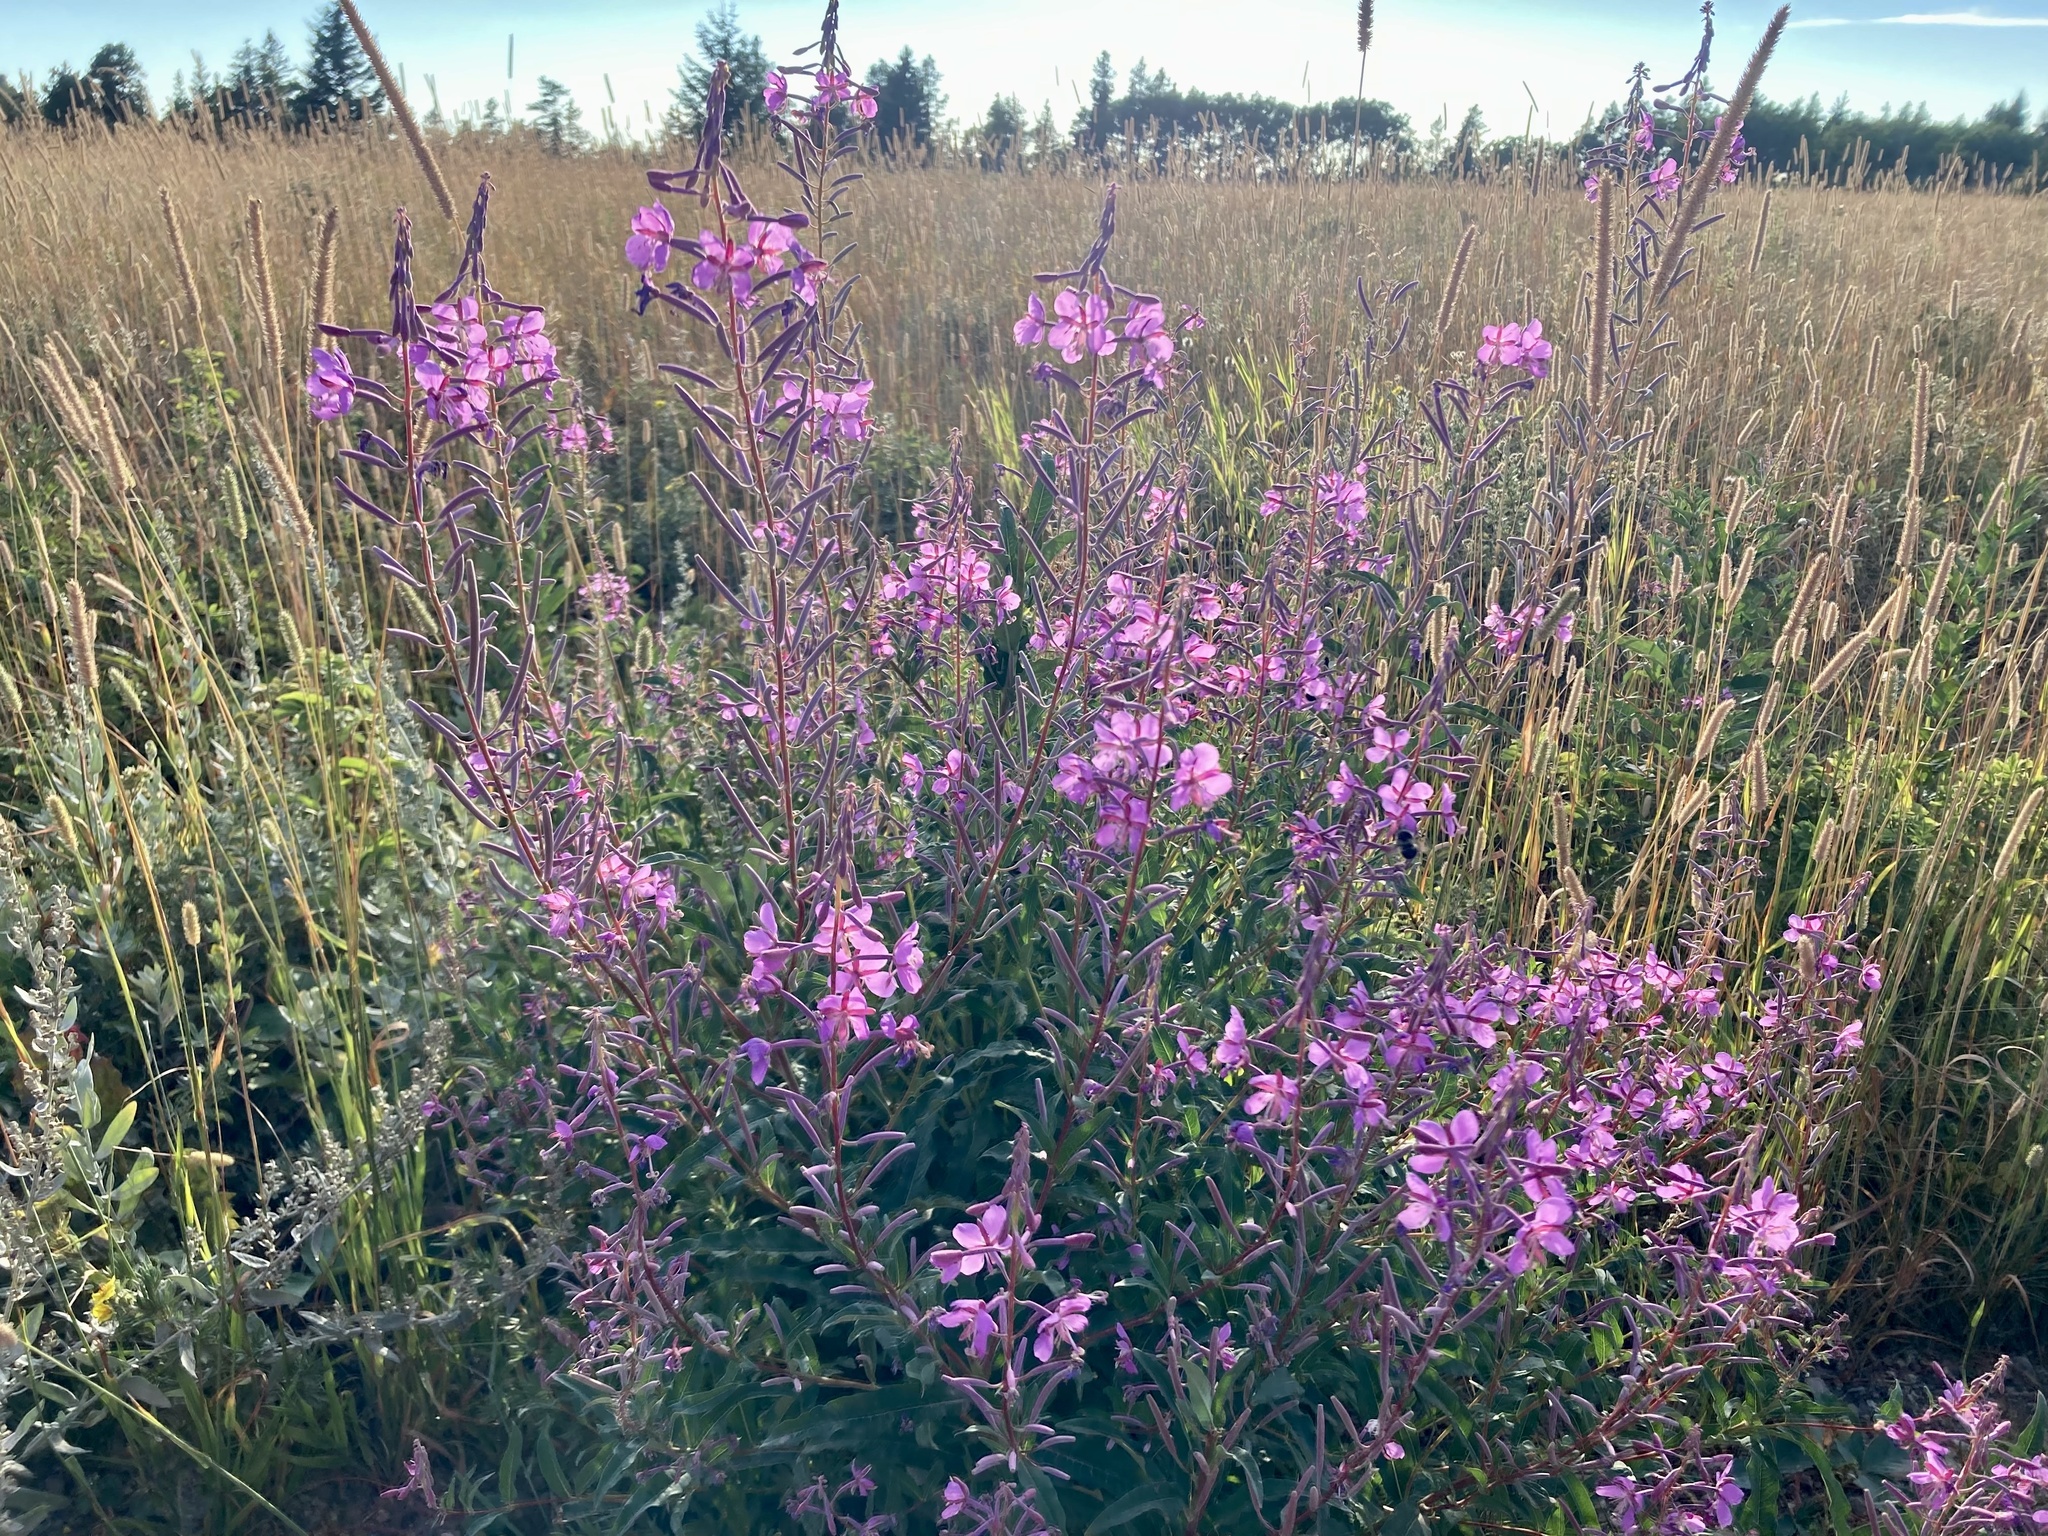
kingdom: Plantae
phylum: Tracheophyta
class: Magnoliopsida
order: Myrtales
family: Onagraceae
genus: Chamaenerion
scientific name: Chamaenerion angustifolium
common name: Fireweed
